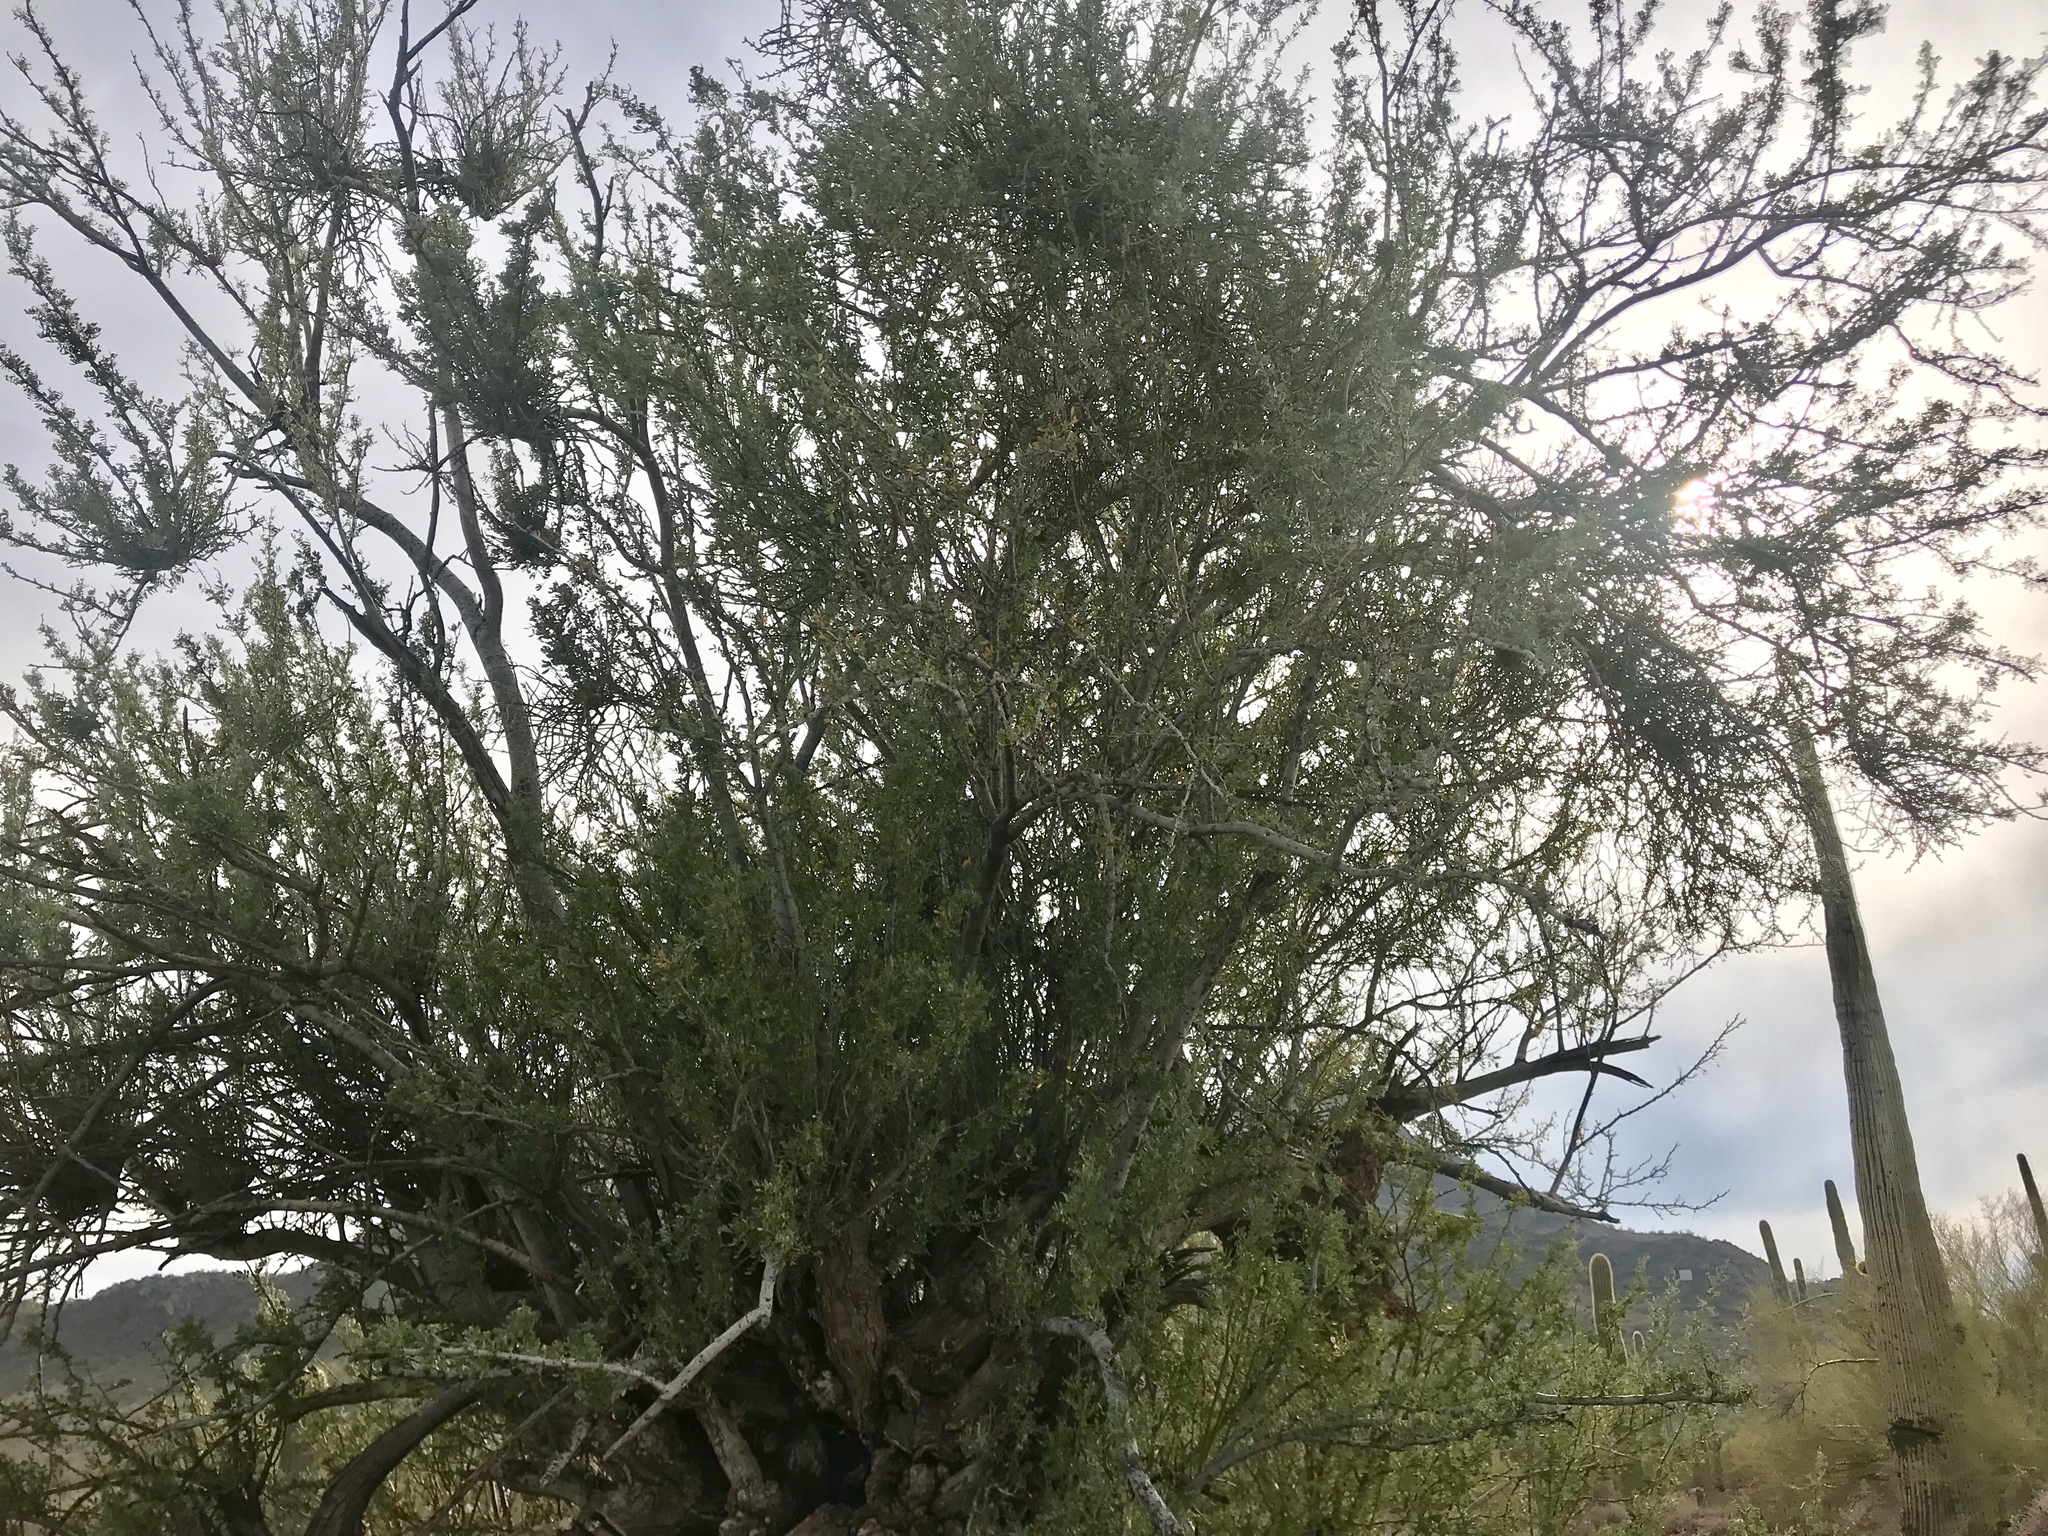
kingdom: Plantae
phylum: Tracheophyta
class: Magnoliopsida
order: Fabales
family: Fabaceae
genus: Olneya
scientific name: Olneya tesota
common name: Desert ironwood
